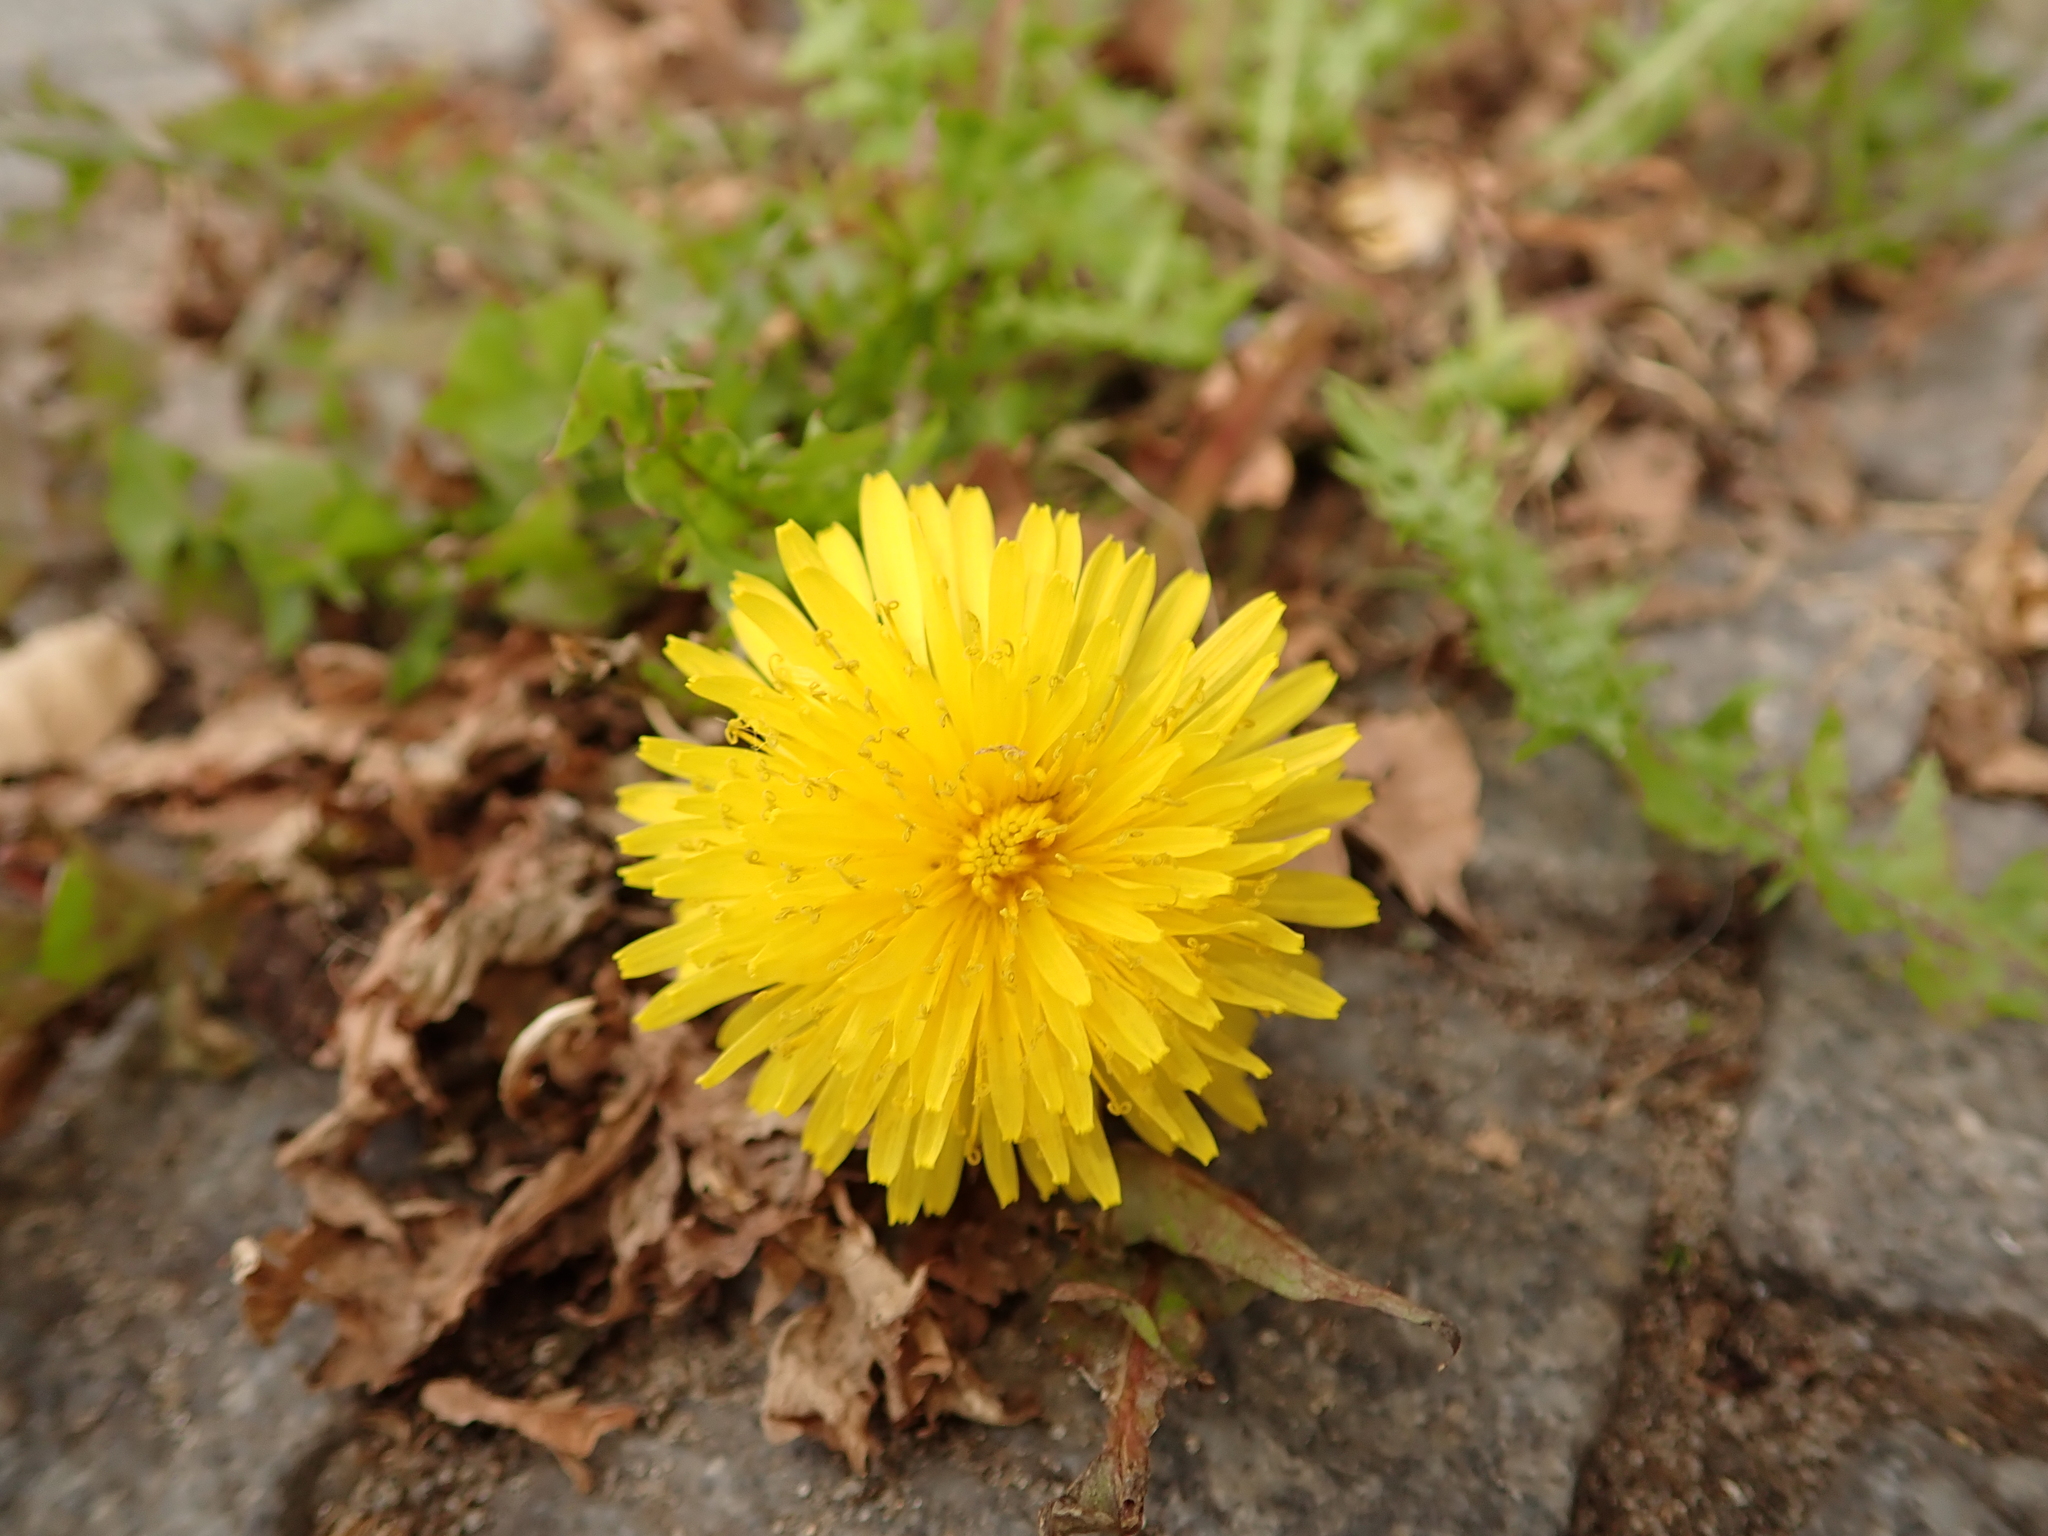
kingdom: Plantae
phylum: Tracheophyta
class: Magnoliopsida
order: Asterales
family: Asteraceae
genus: Taraxacum
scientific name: Taraxacum officinale
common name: Common dandelion
